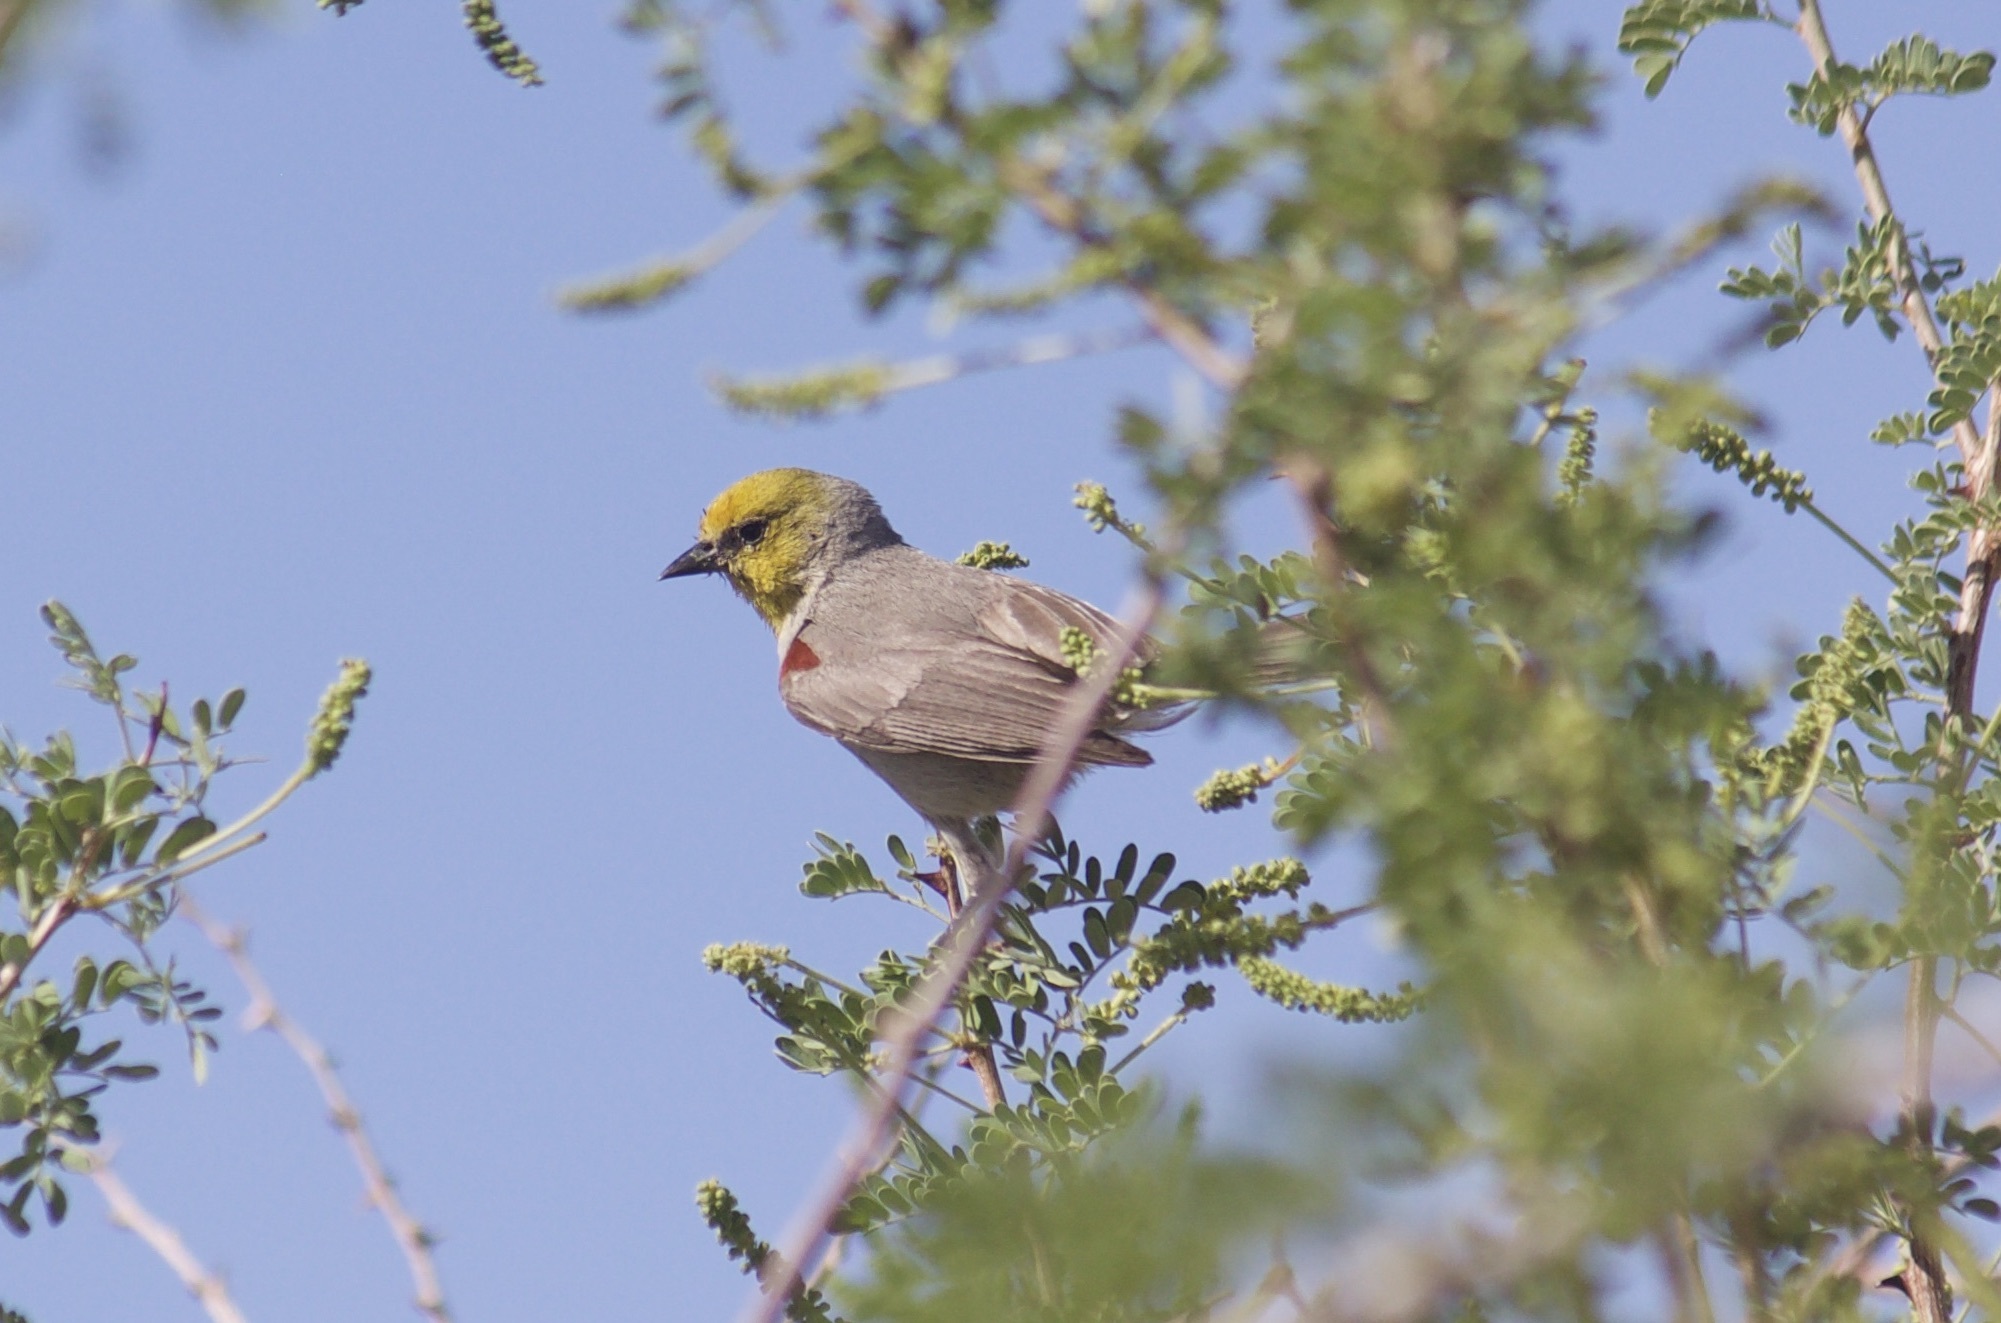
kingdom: Animalia
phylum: Chordata
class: Aves
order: Passeriformes
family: Remizidae
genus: Auriparus
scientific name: Auriparus flaviceps
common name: Verdin
